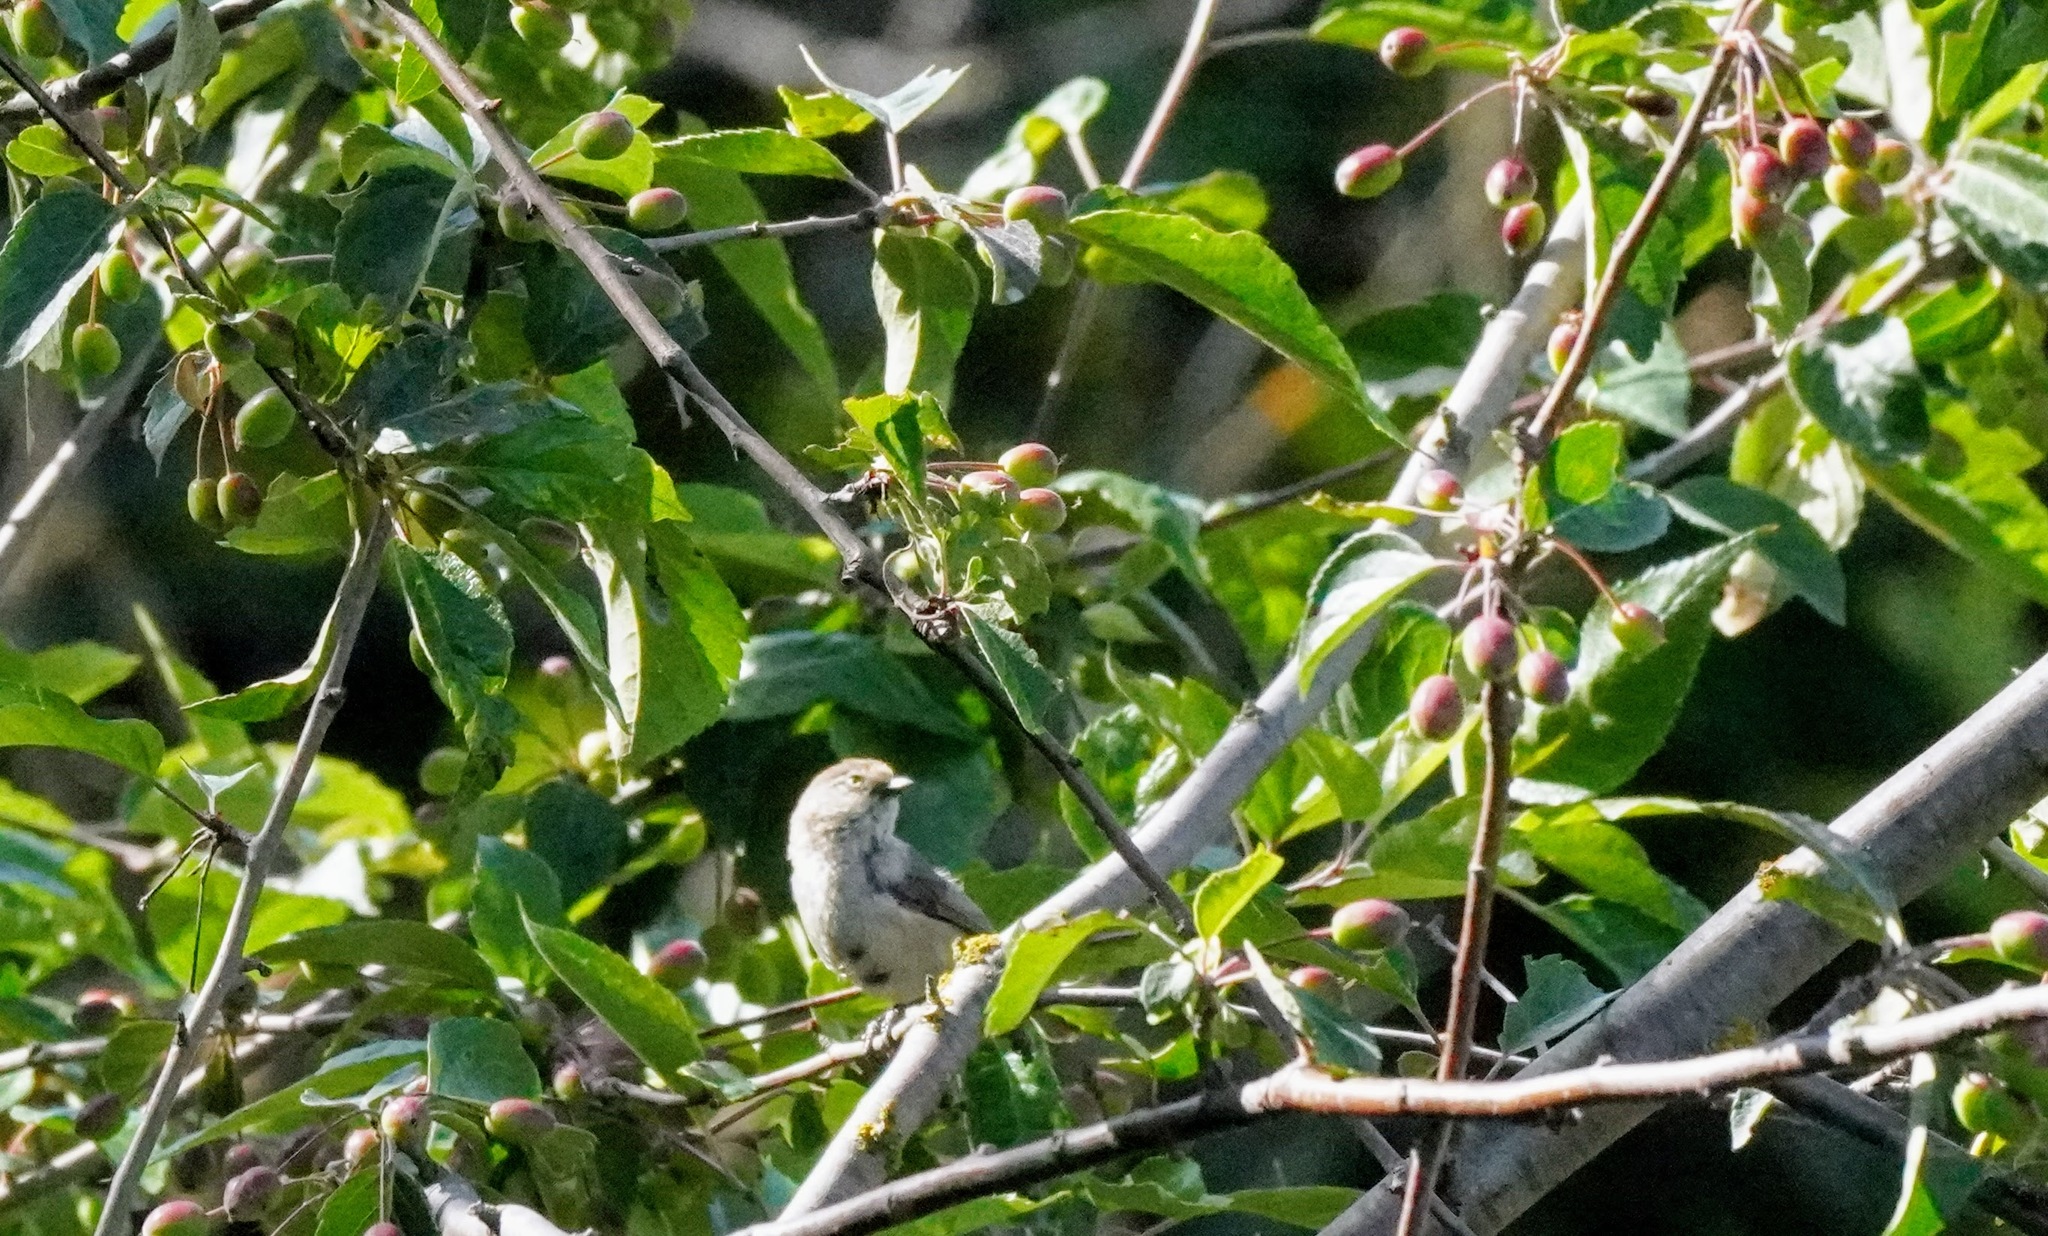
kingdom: Animalia
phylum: Chordata
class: Aves
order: Passeriformes
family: Aegithalidae
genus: Psaltriparus
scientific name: Psaltriparus minimus
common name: American bushtit
